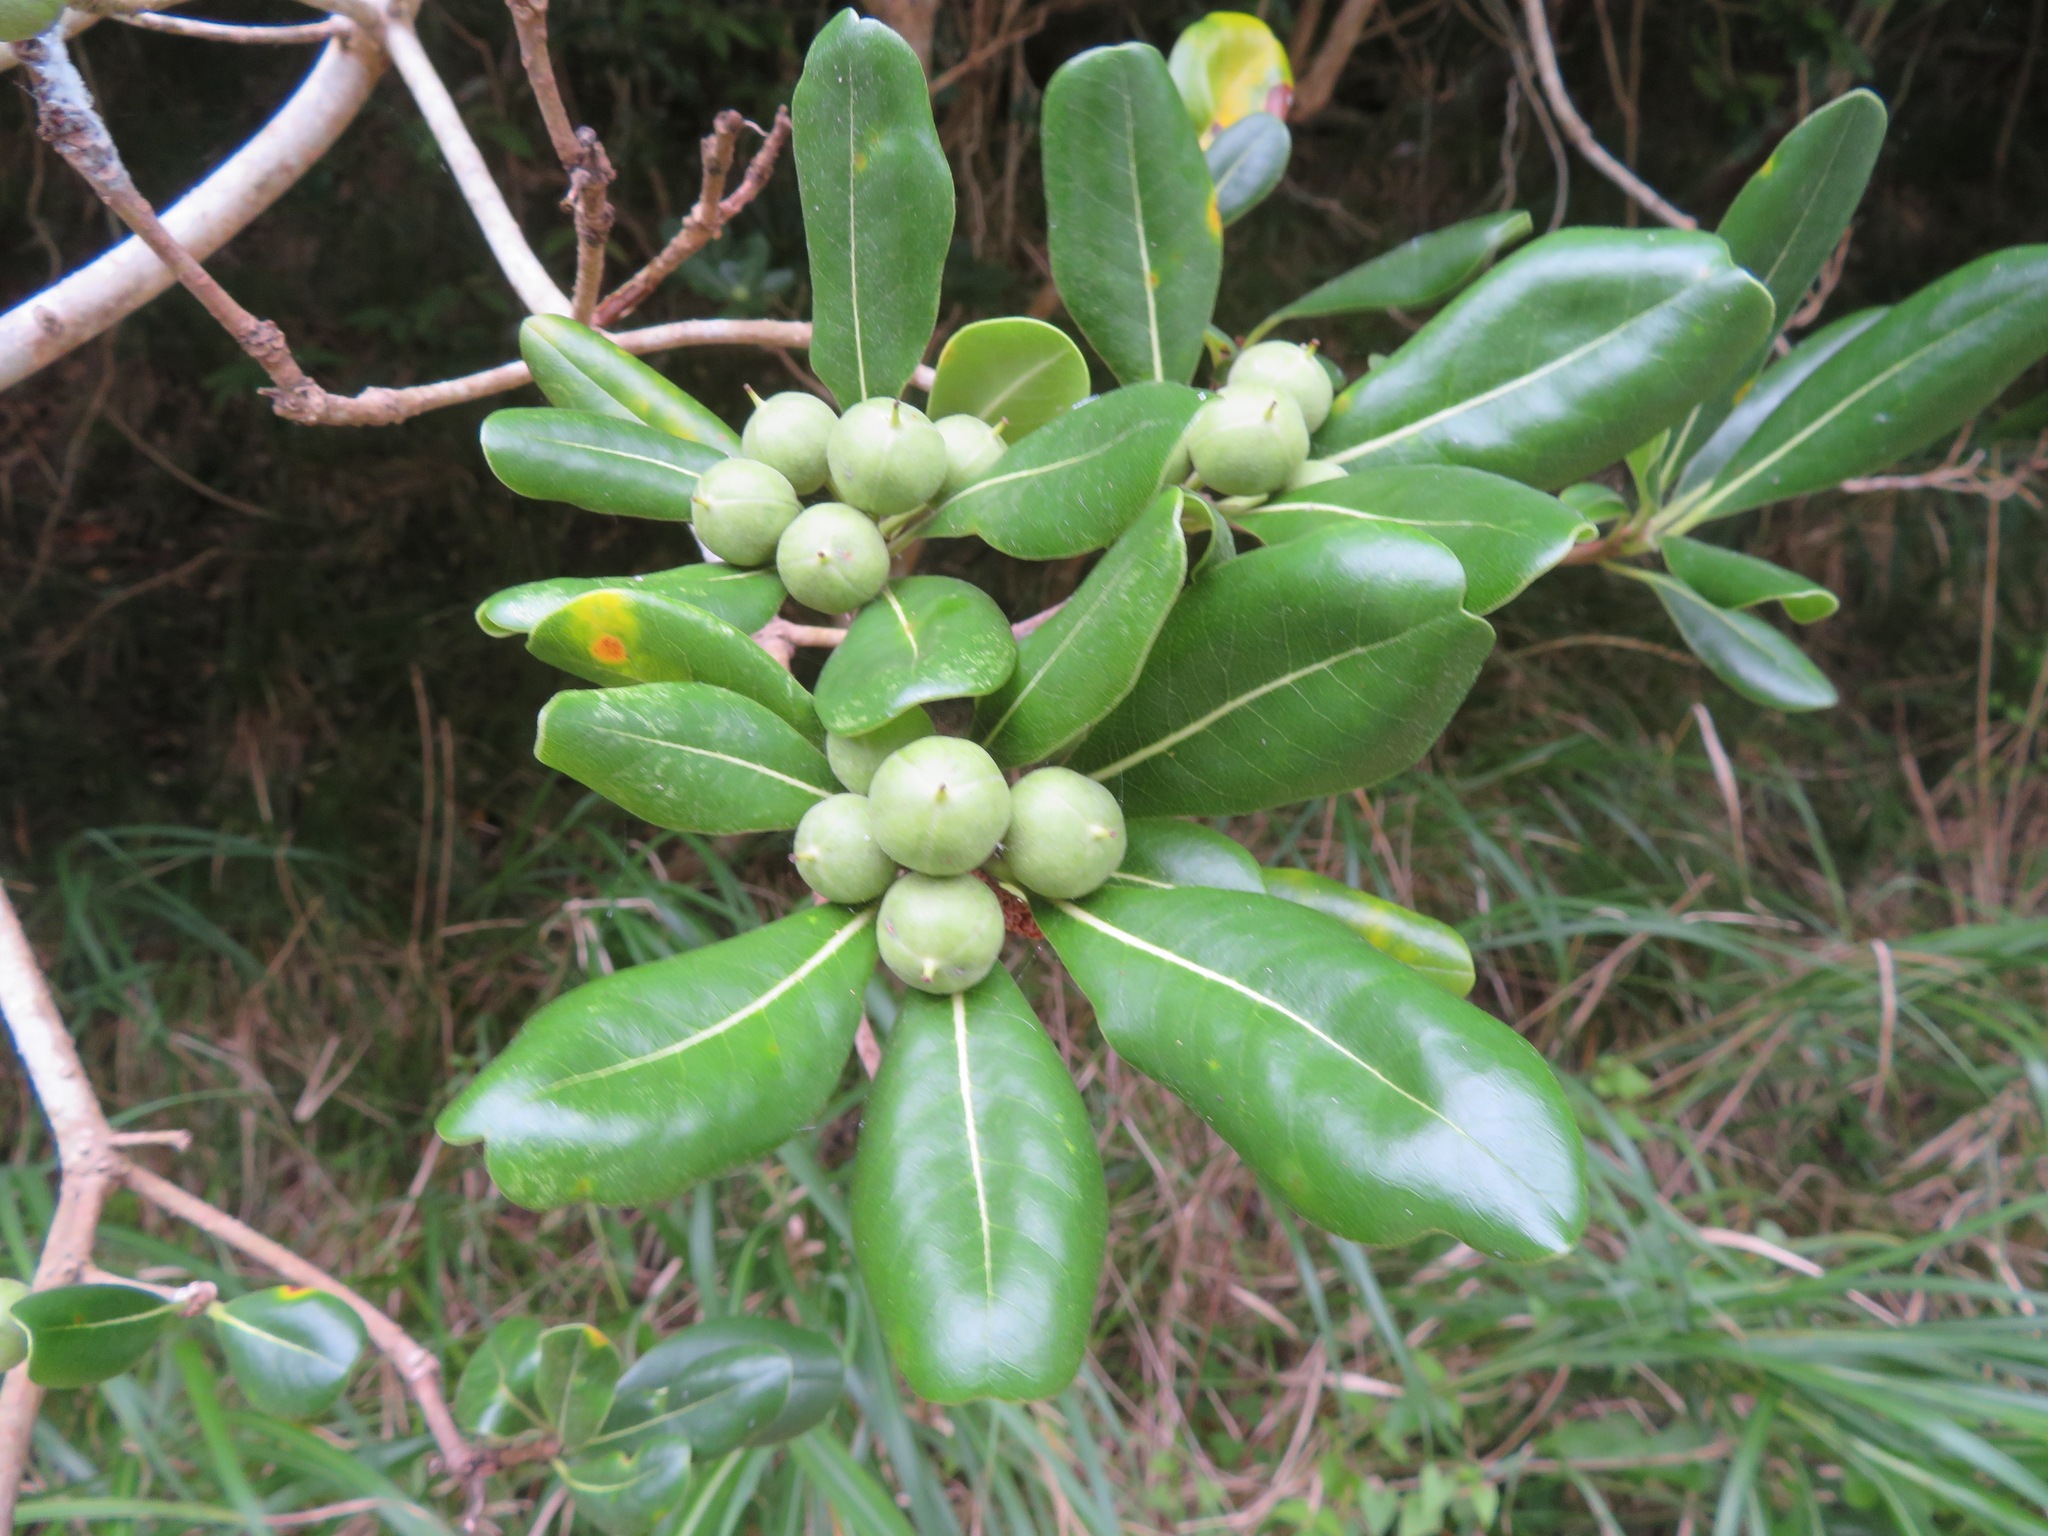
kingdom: Plantae
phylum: Tracheophyta
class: Magnoliopsida
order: Apiales
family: Pittosporaceae
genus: Pittosporum
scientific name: Pittosporum tobira
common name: Japanese cheesewood
